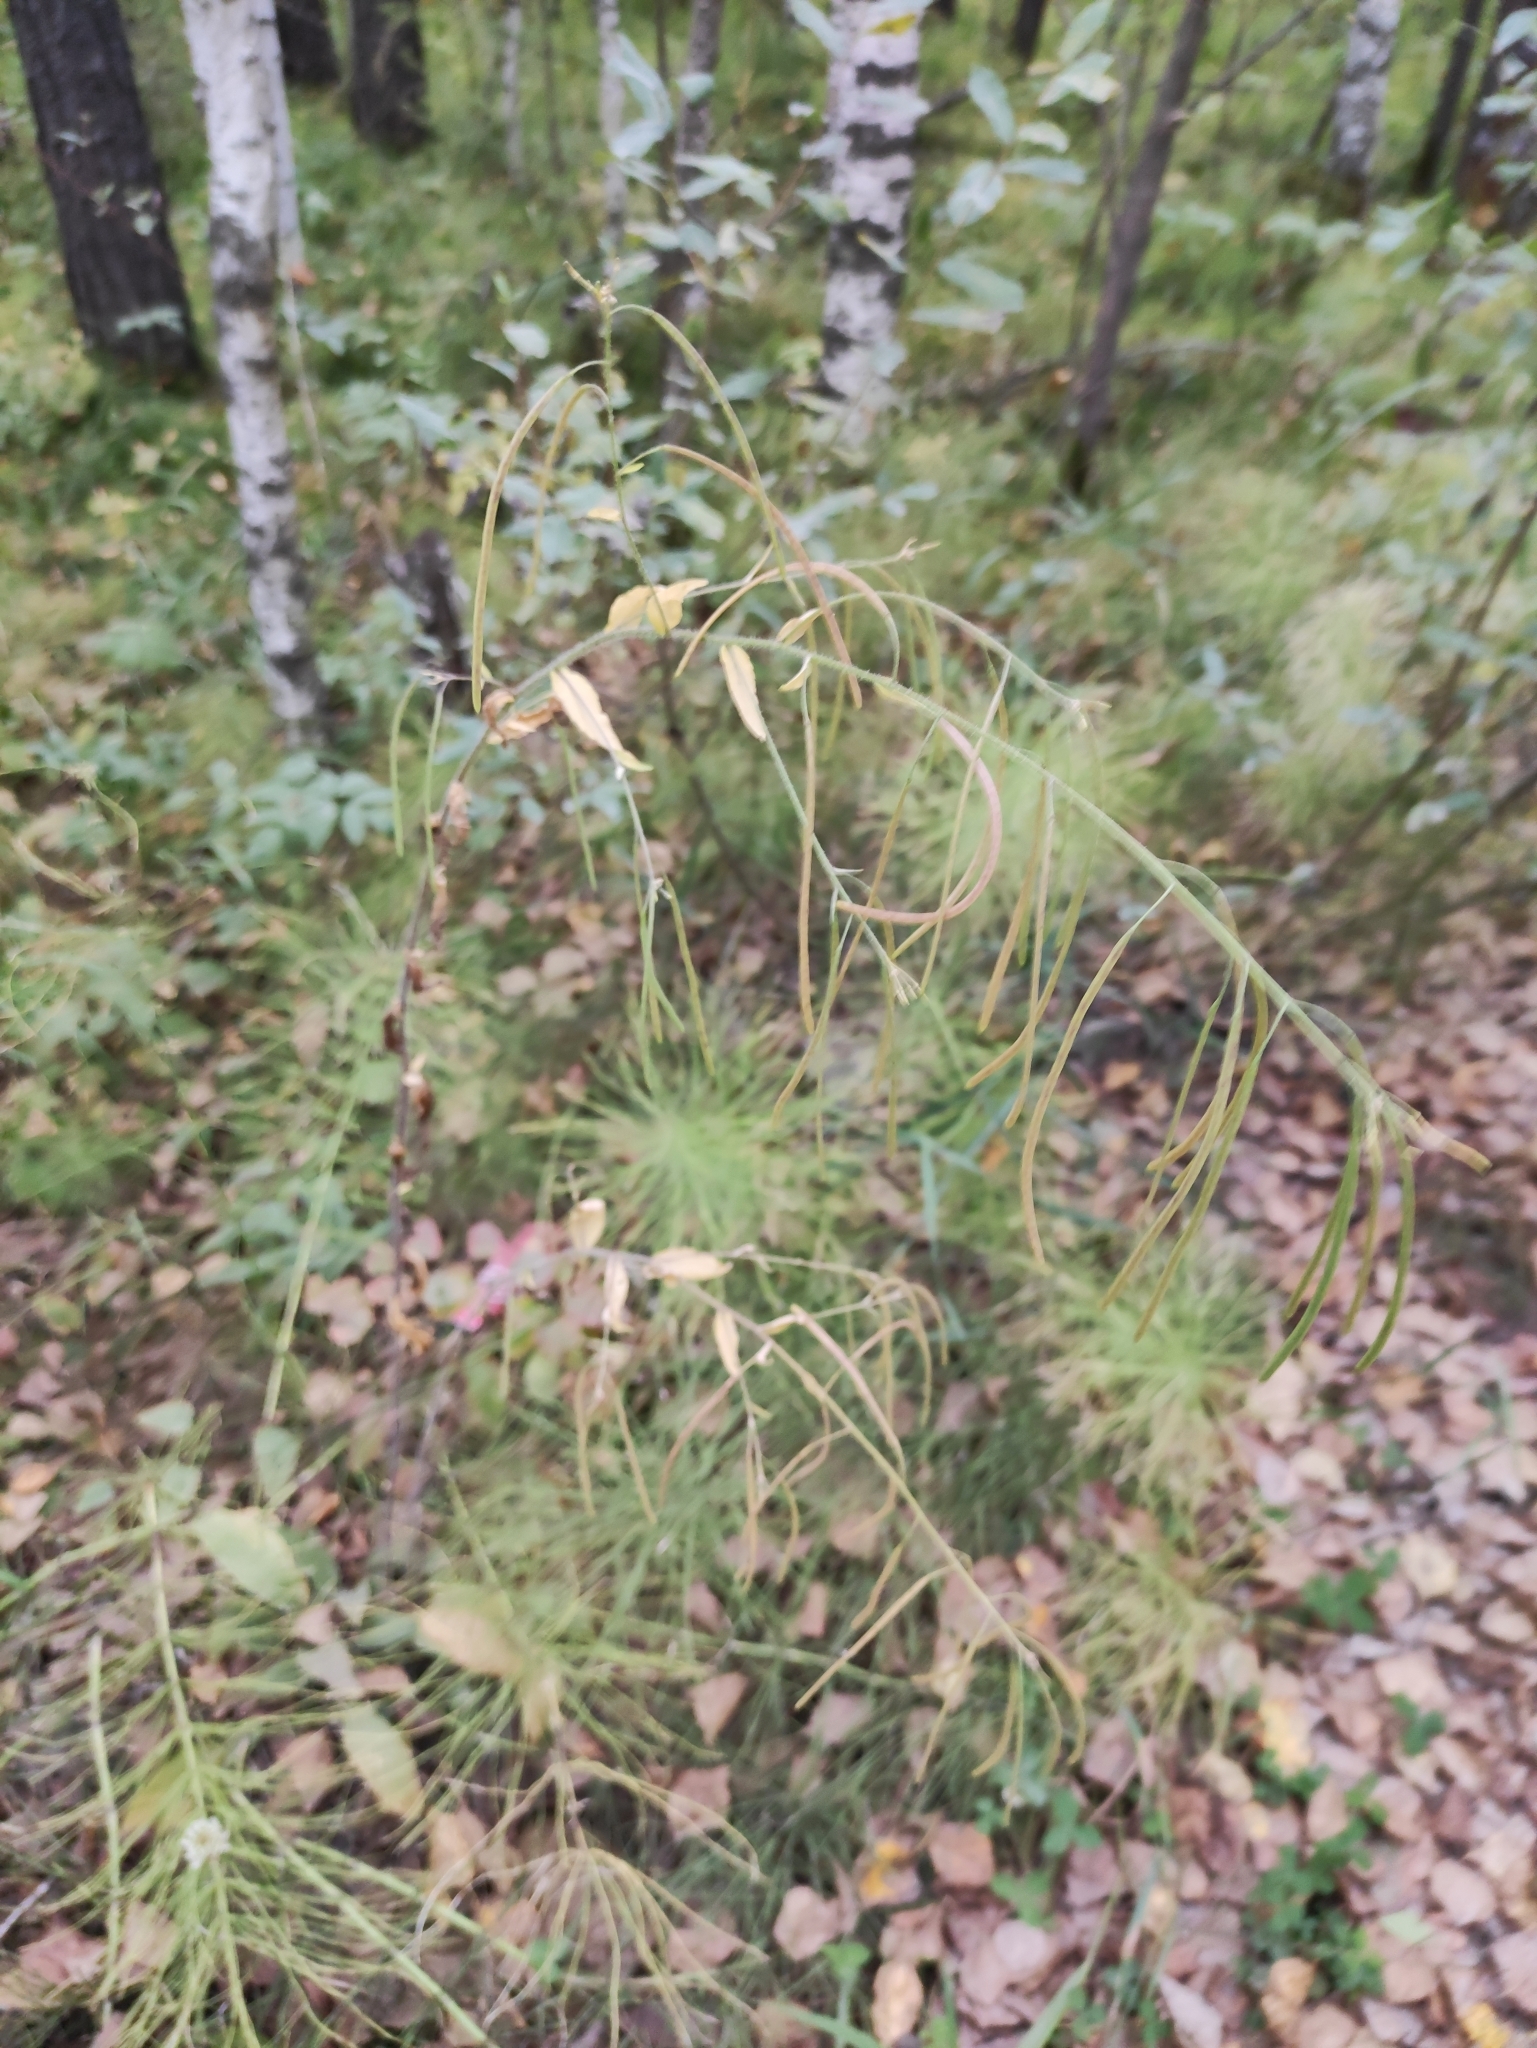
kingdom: Plantae
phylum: Tracheophyta
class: Magnoliopsida
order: Brassicales
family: Brassicaceae
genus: Catolobus
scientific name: Catolobus pendulus
